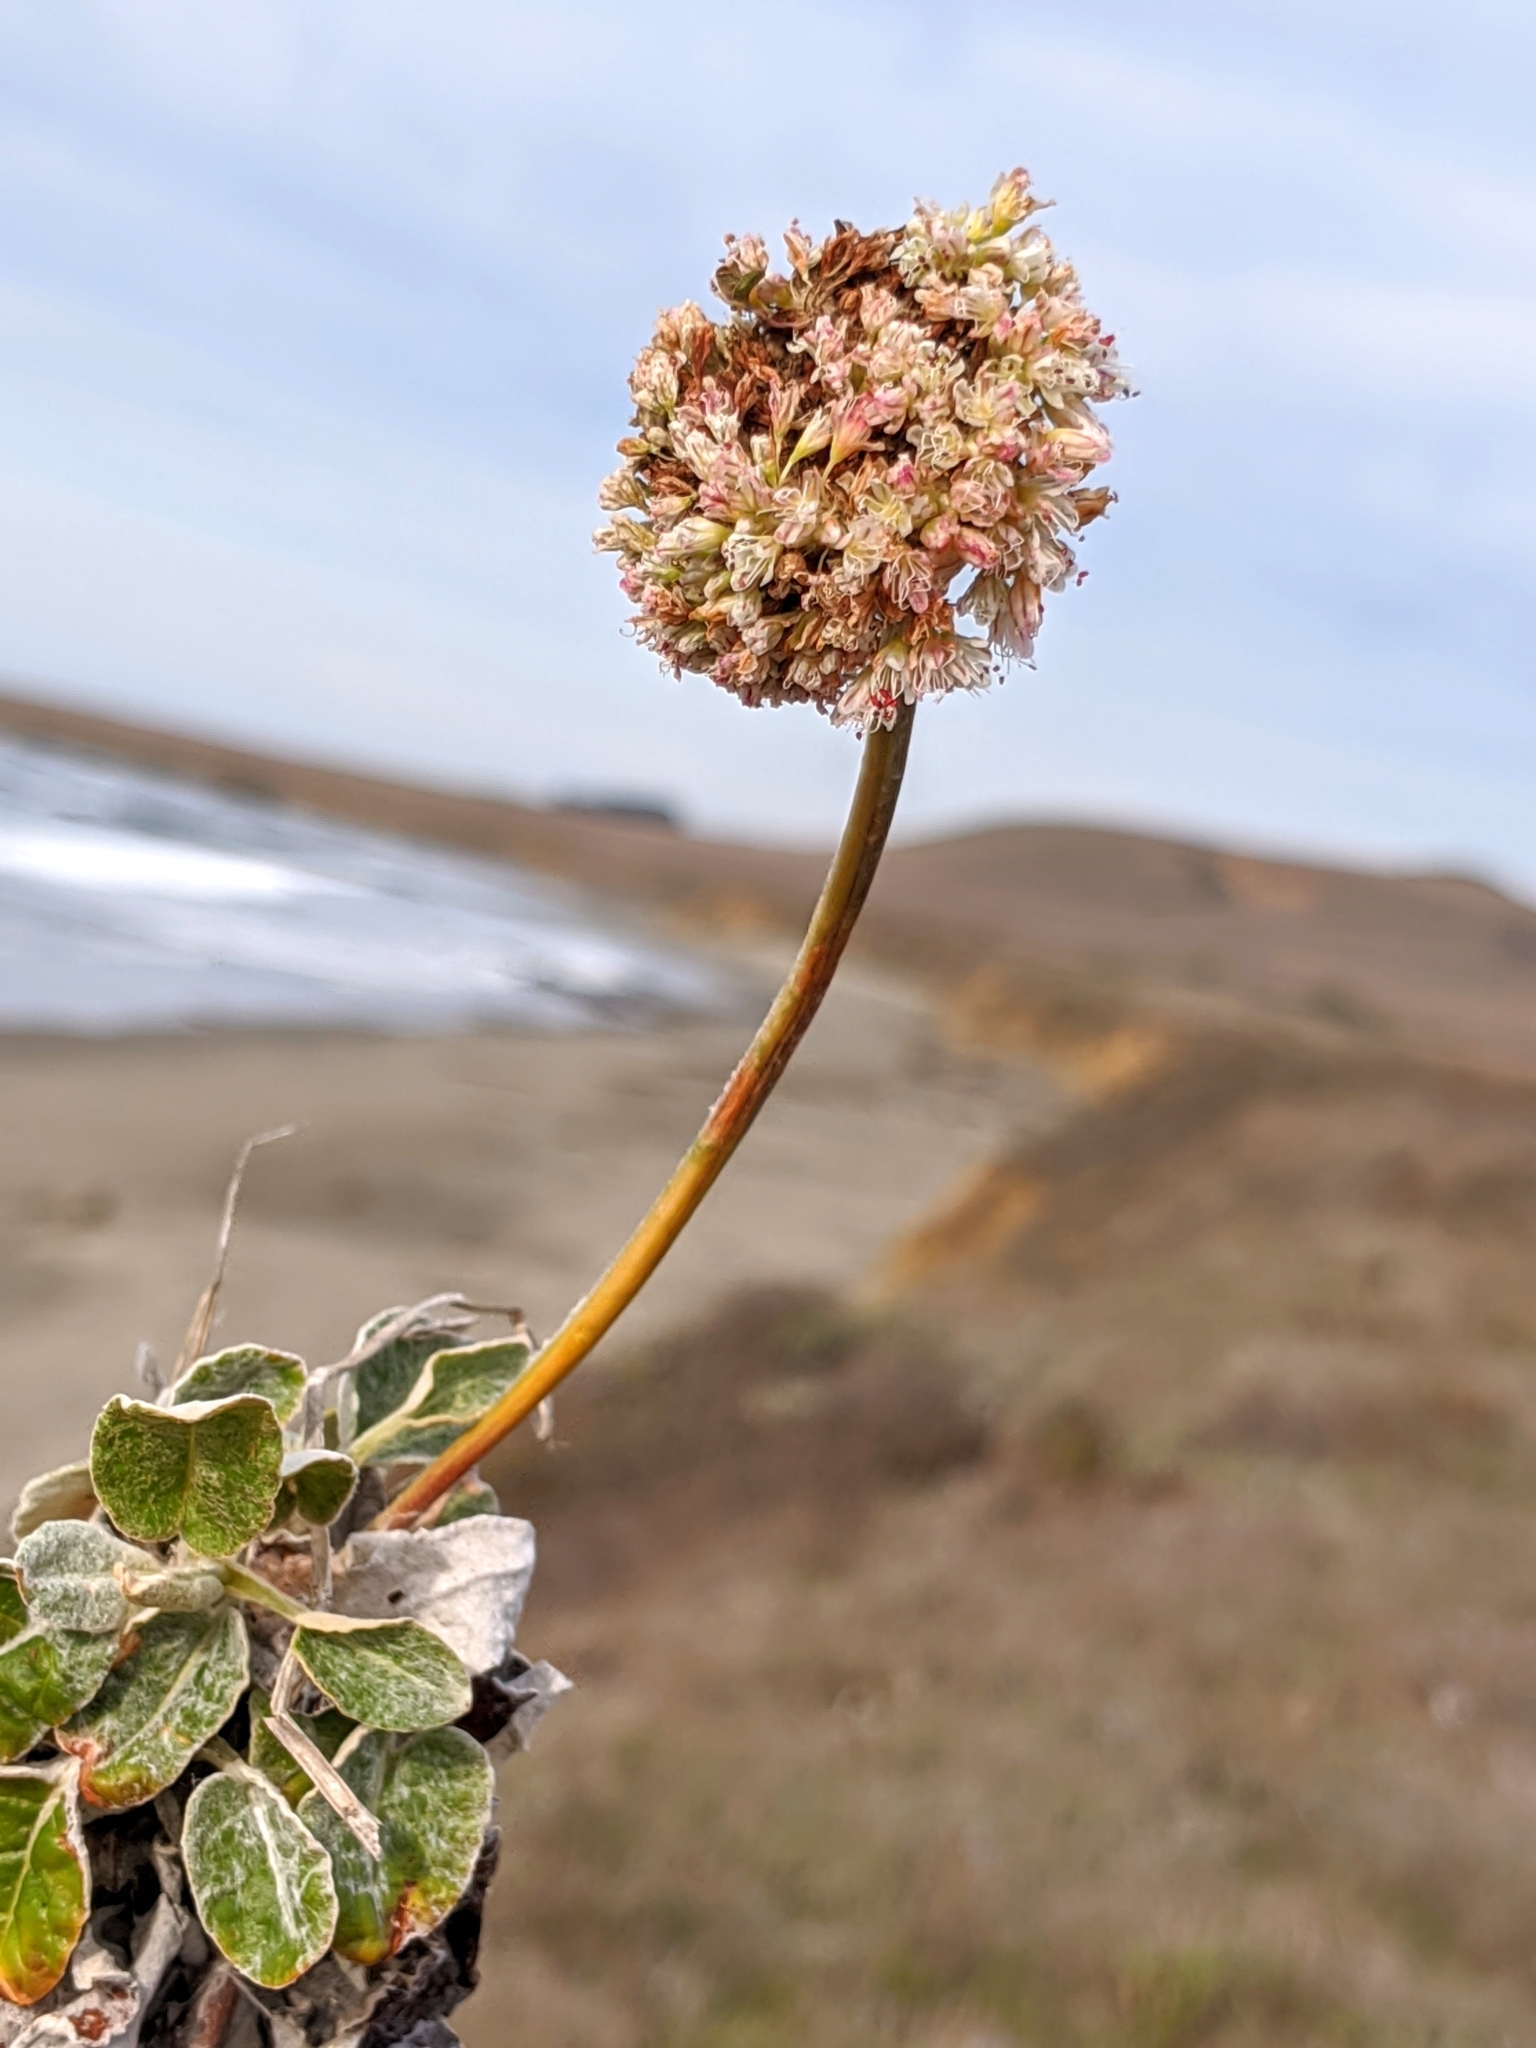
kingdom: Plantae
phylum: Tracheophyta
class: Magnoliopsida
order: Caryophyllales
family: Polygonaceae
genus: Eriogonum
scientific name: Eriogonum latifolium
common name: Seaside wild buckwheat
